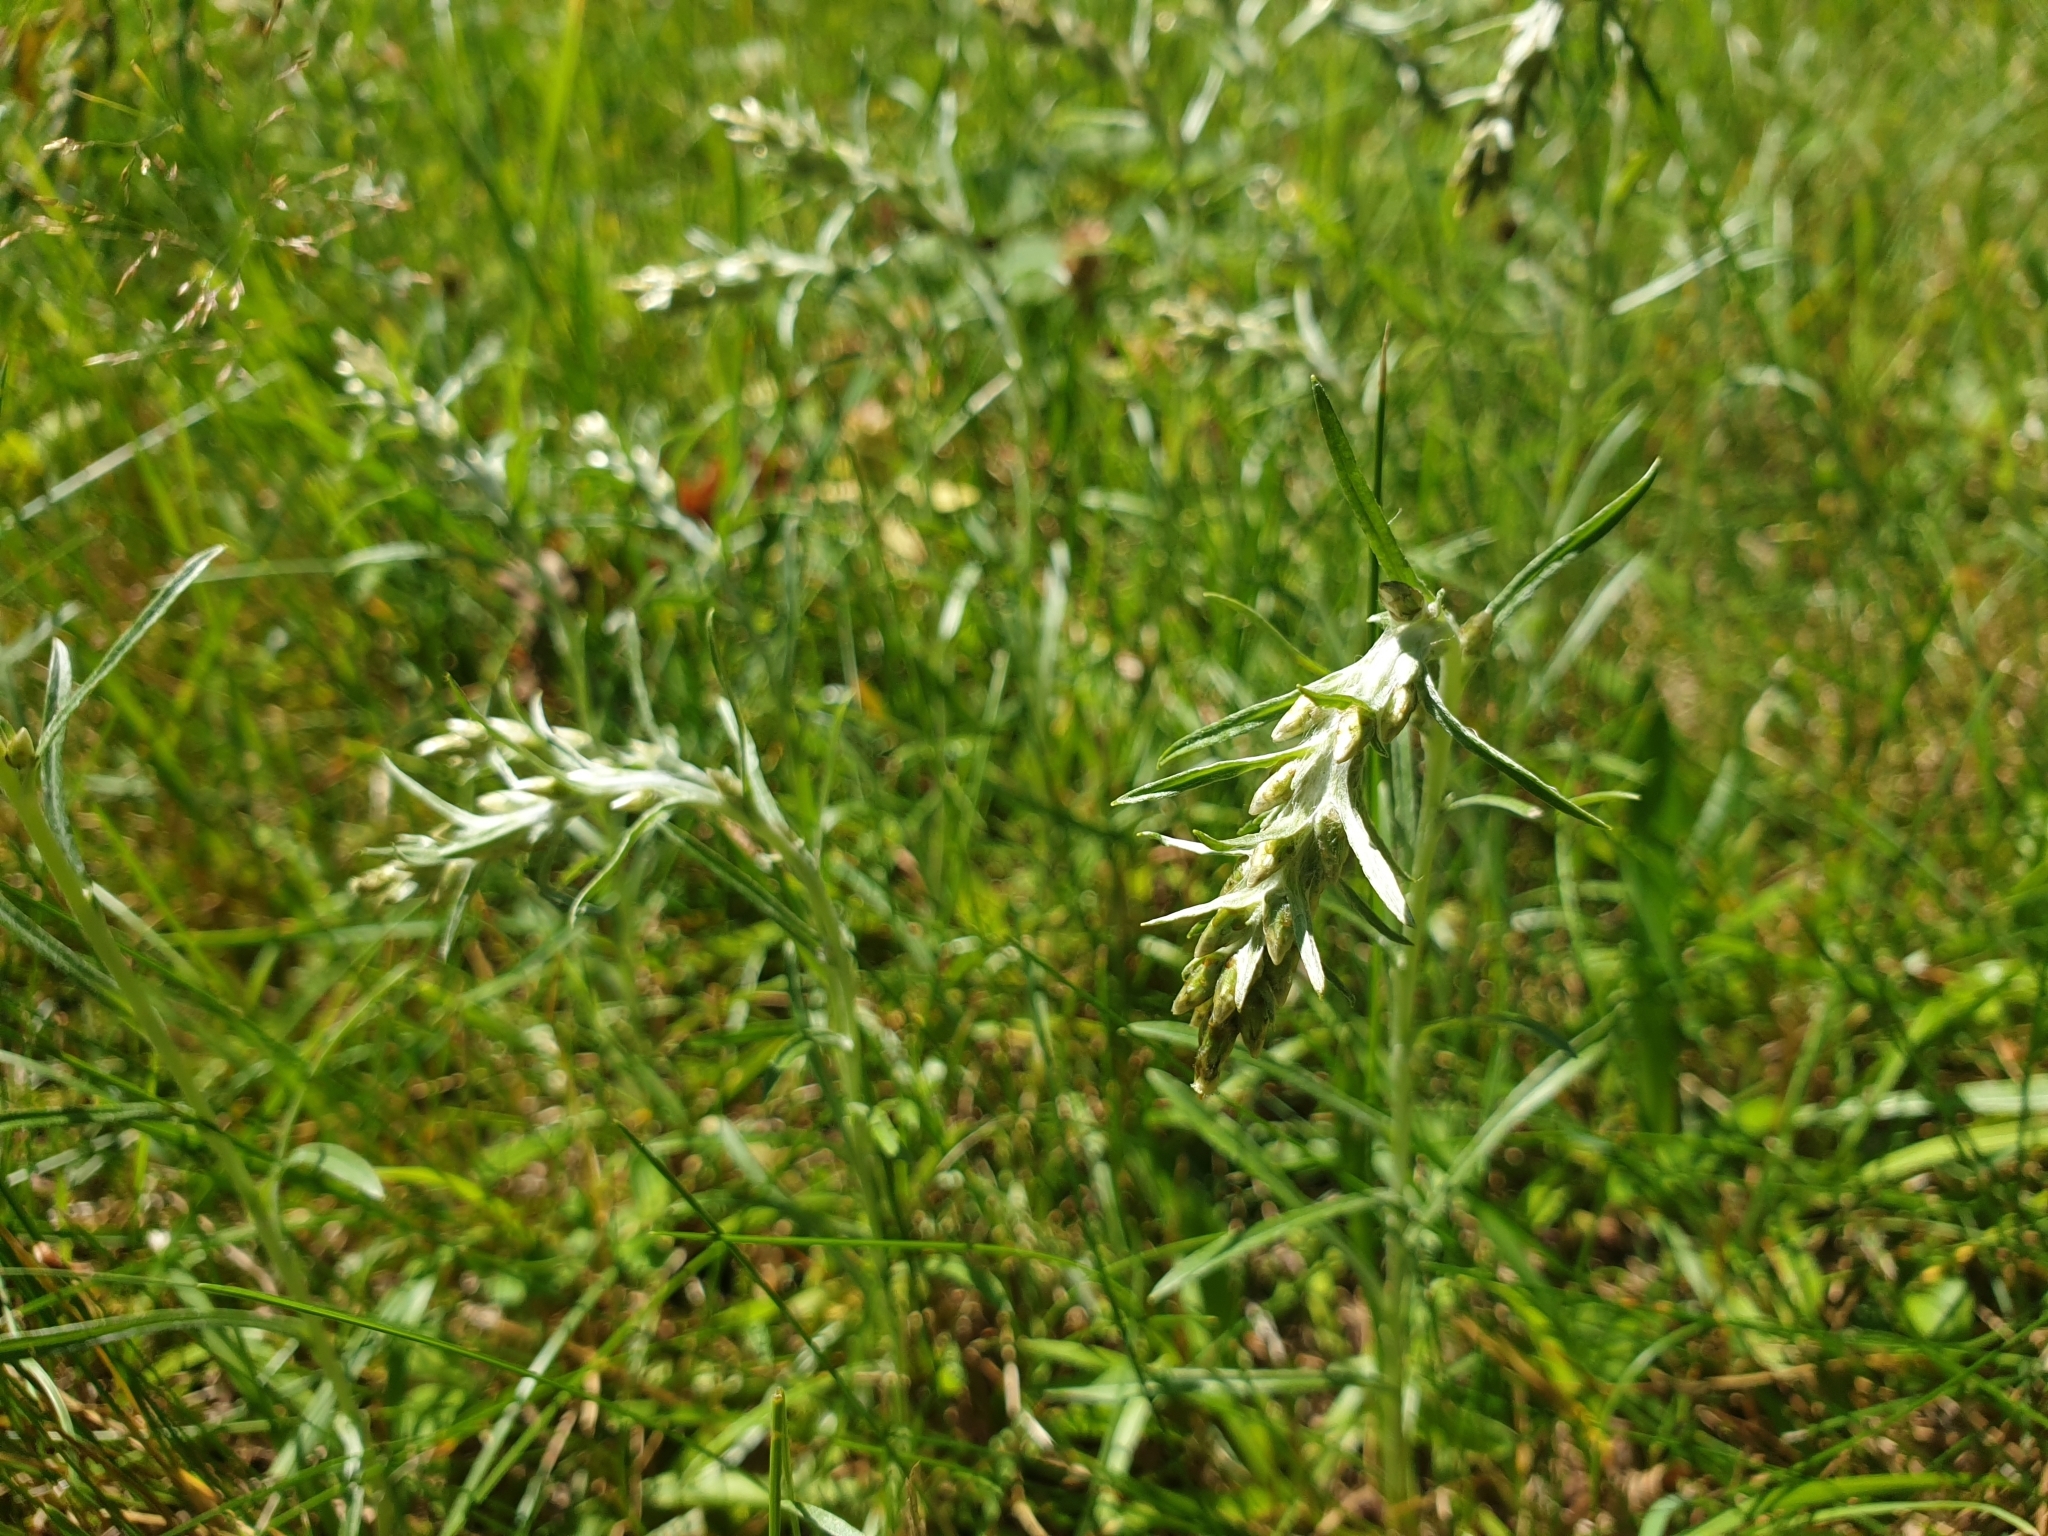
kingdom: Plantae
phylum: Tracheophyta
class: Magnoliopsida
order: Asterales
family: Asteraceae
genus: Omalotheca
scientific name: Omalotheca sylvatica
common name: Heath cudweed
